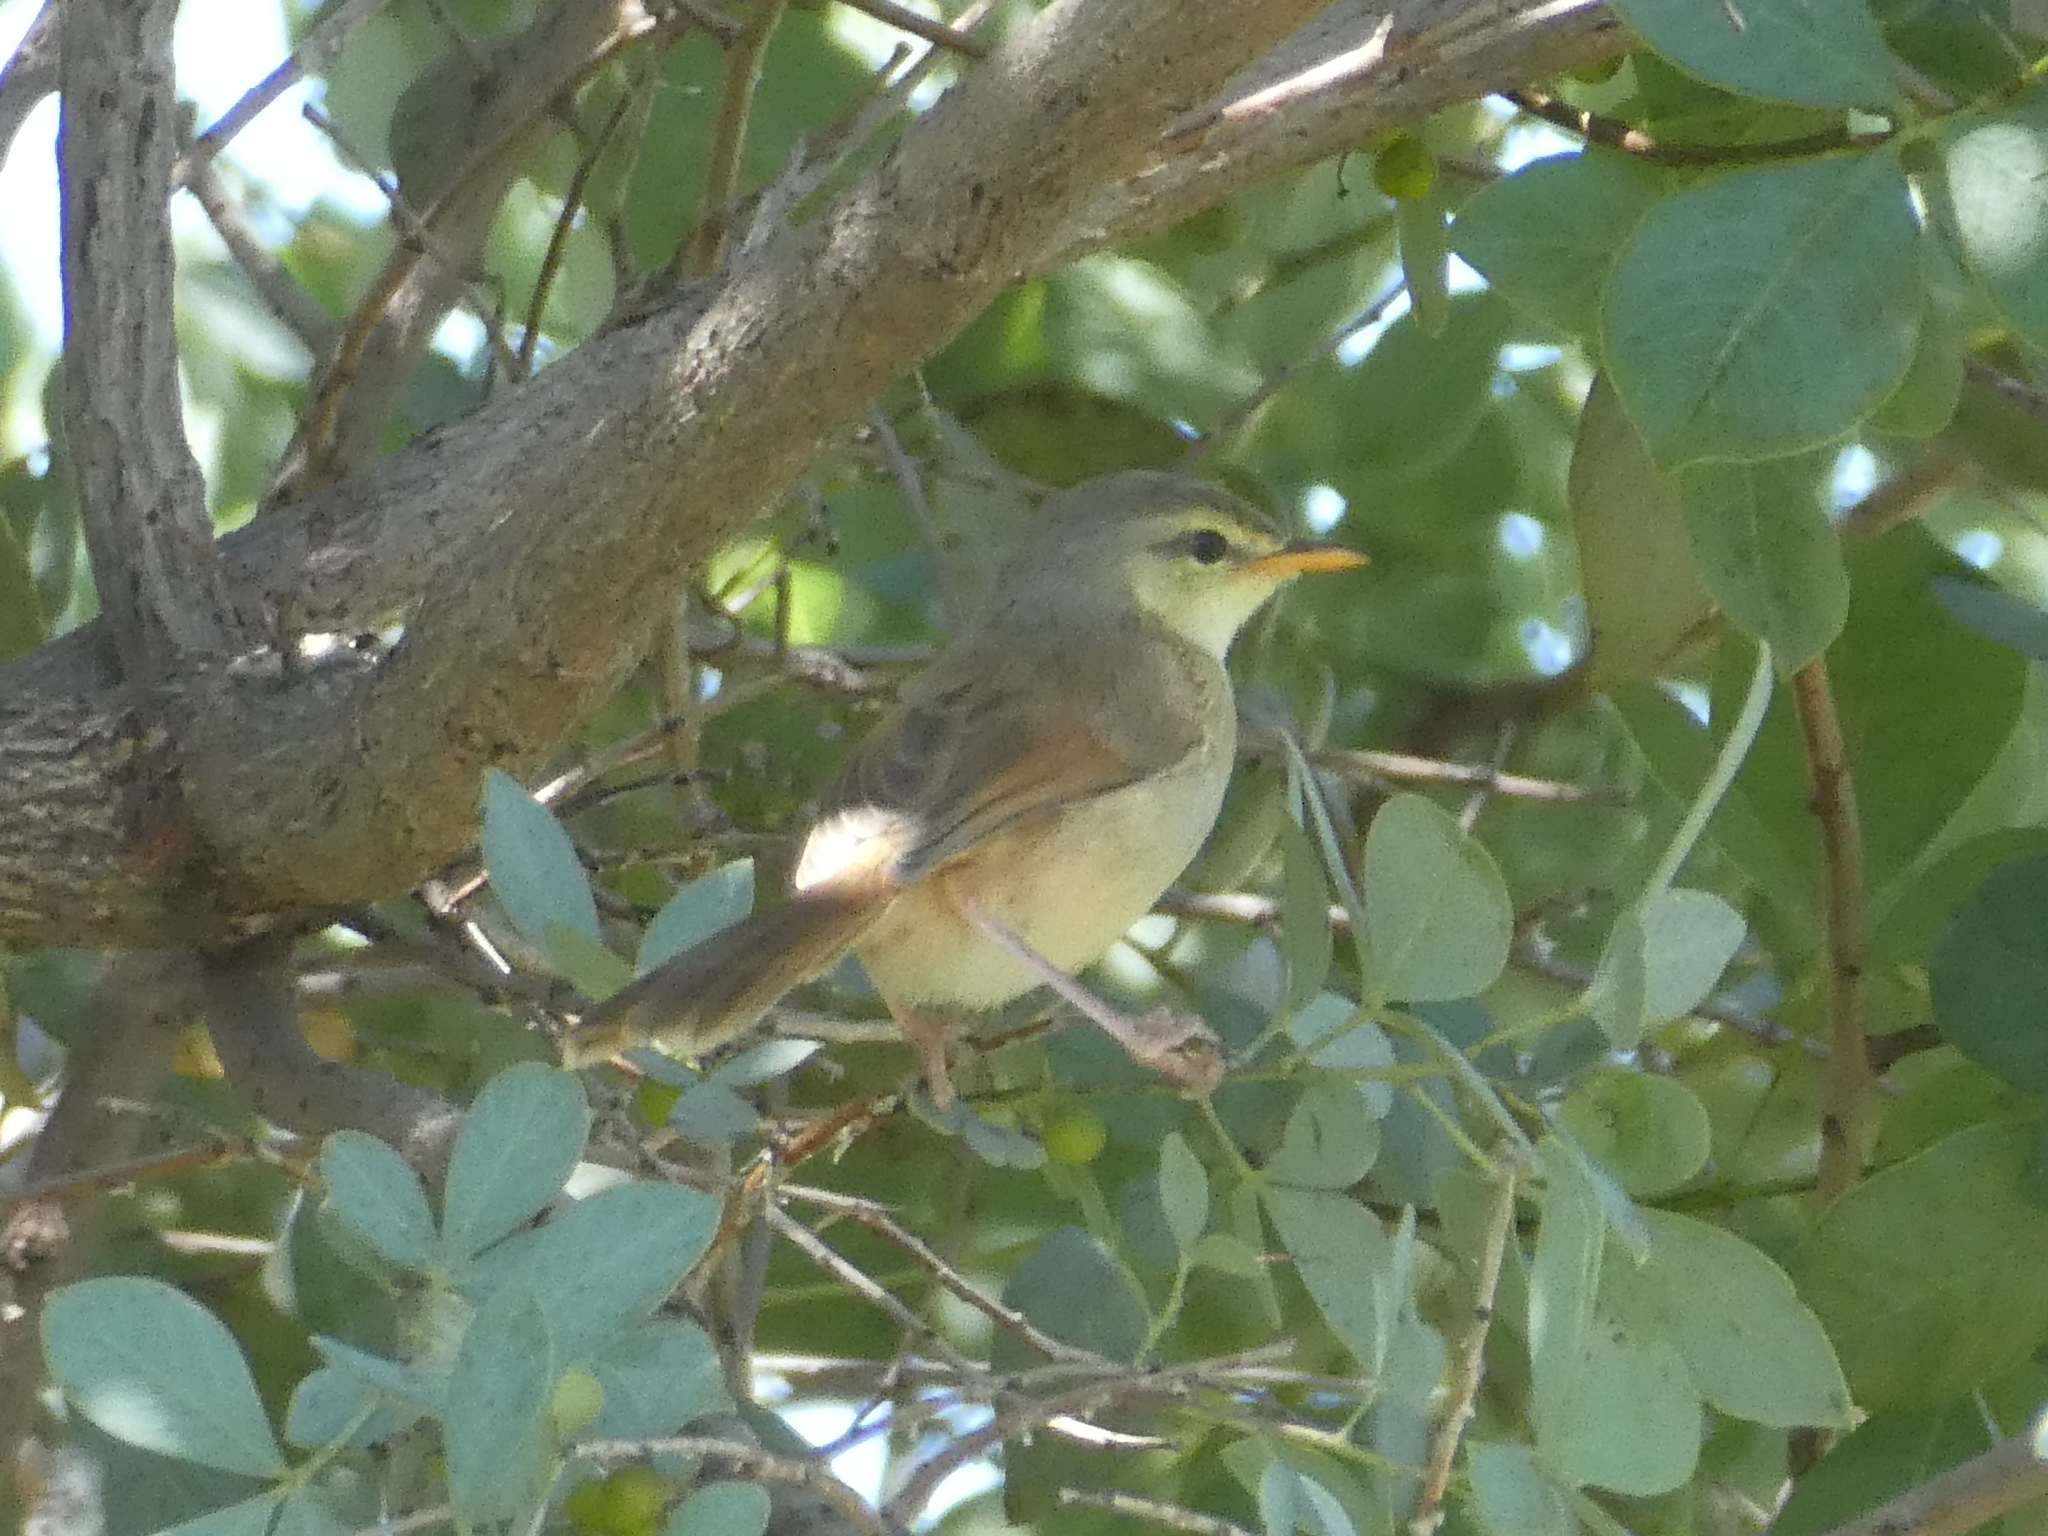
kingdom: Animalia
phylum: Chordata
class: Aves
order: Passeriformes
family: Cisticolidae
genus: Prinia
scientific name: Prinia subflava
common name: Tawny-flanked prinia
